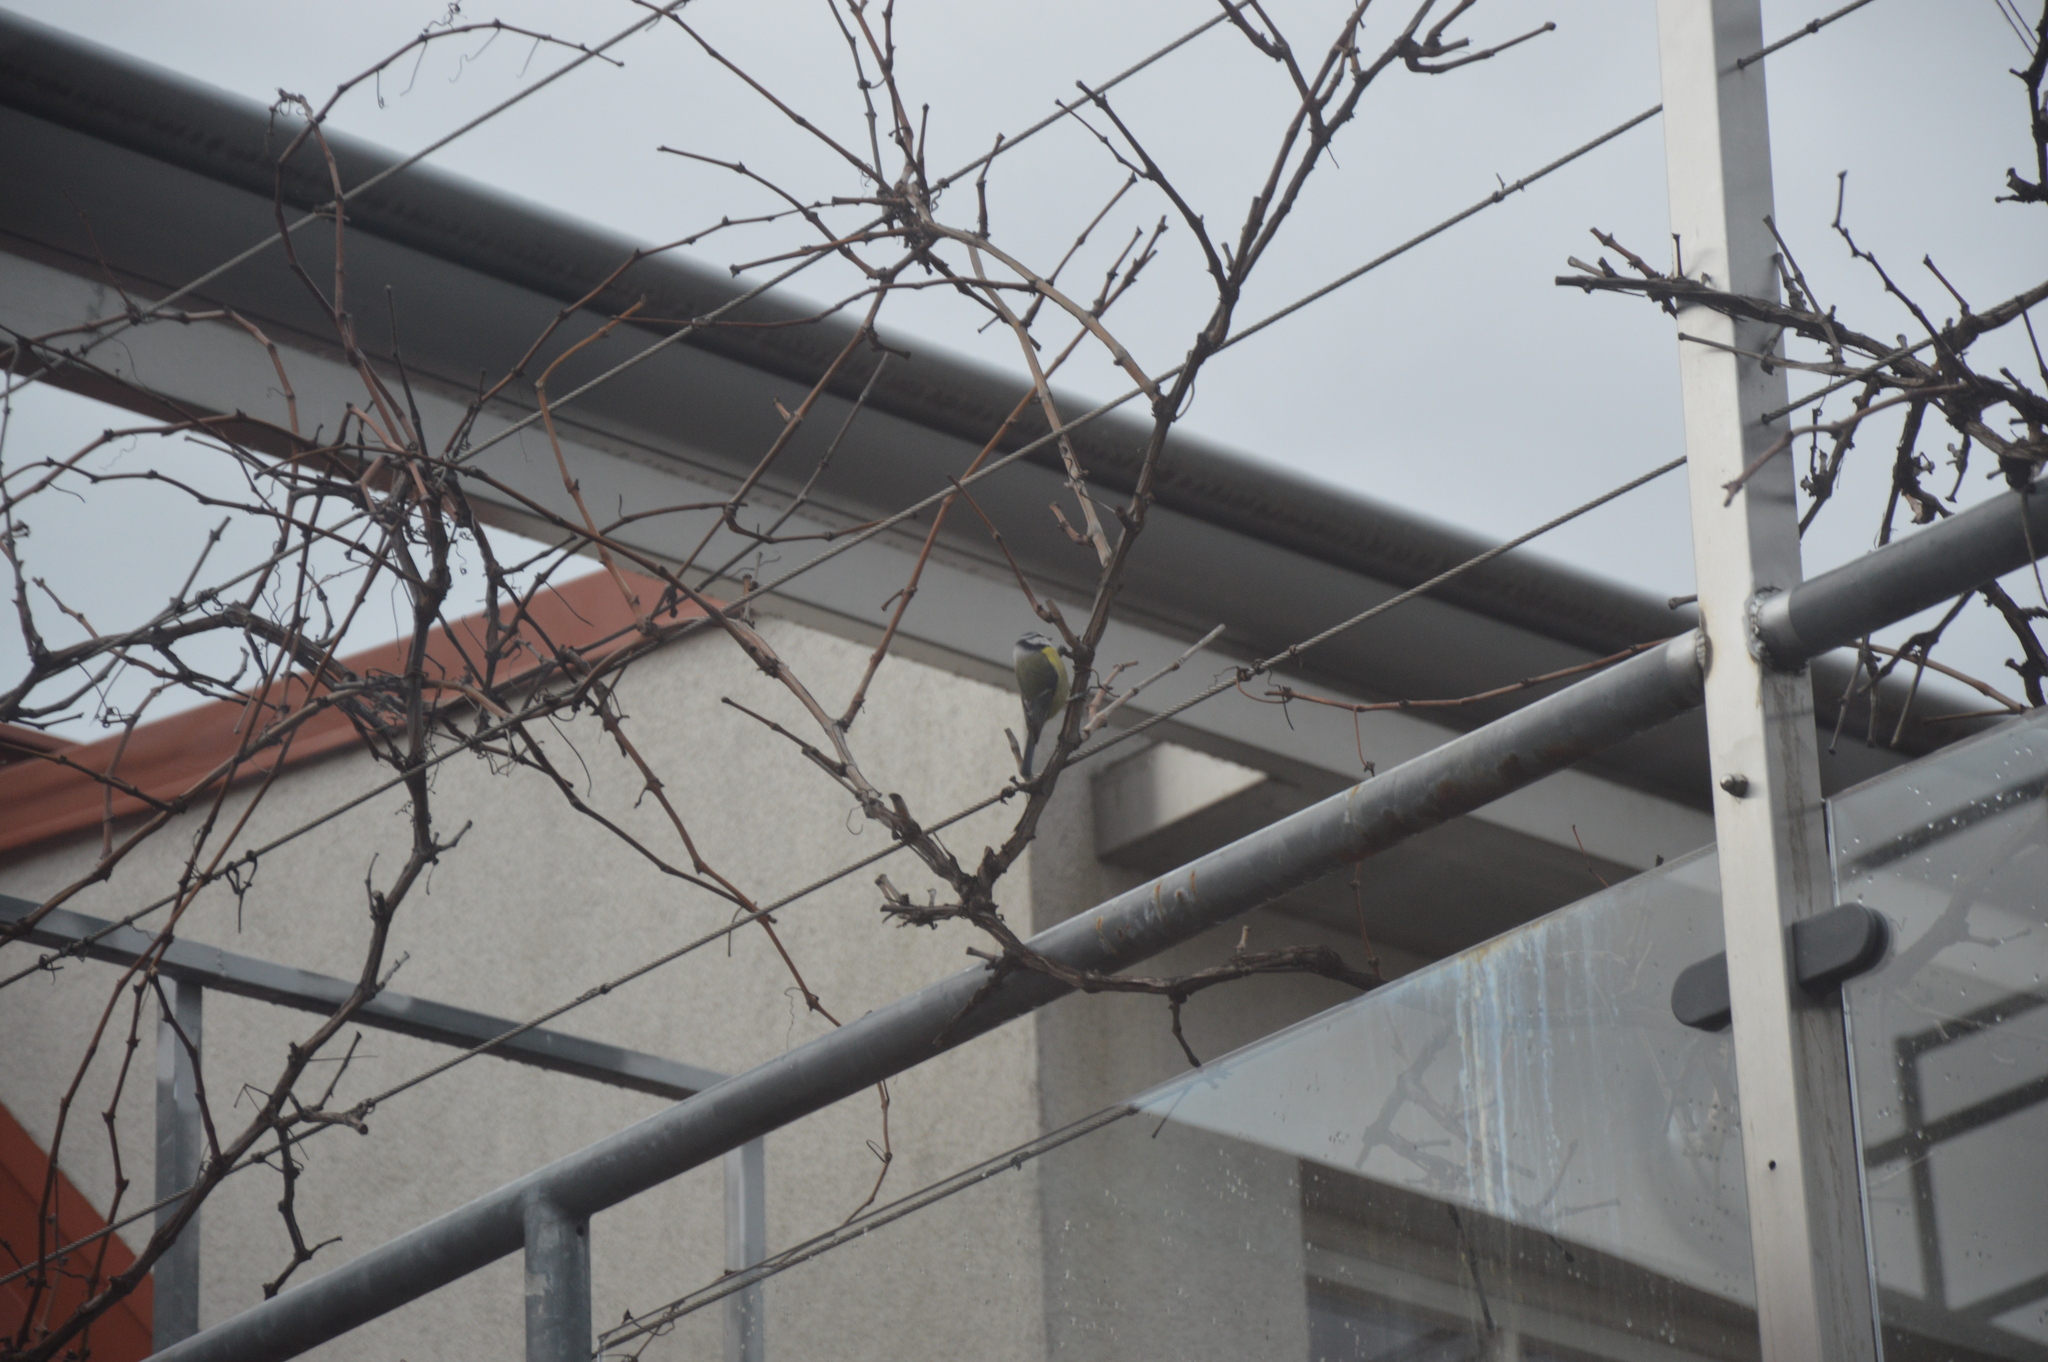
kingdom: Animalia
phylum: Chordata
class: Aves
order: Passeriformes
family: Paridae
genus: Cyanistes
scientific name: Cyanistes caeruleus
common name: Eurasian blue tit
